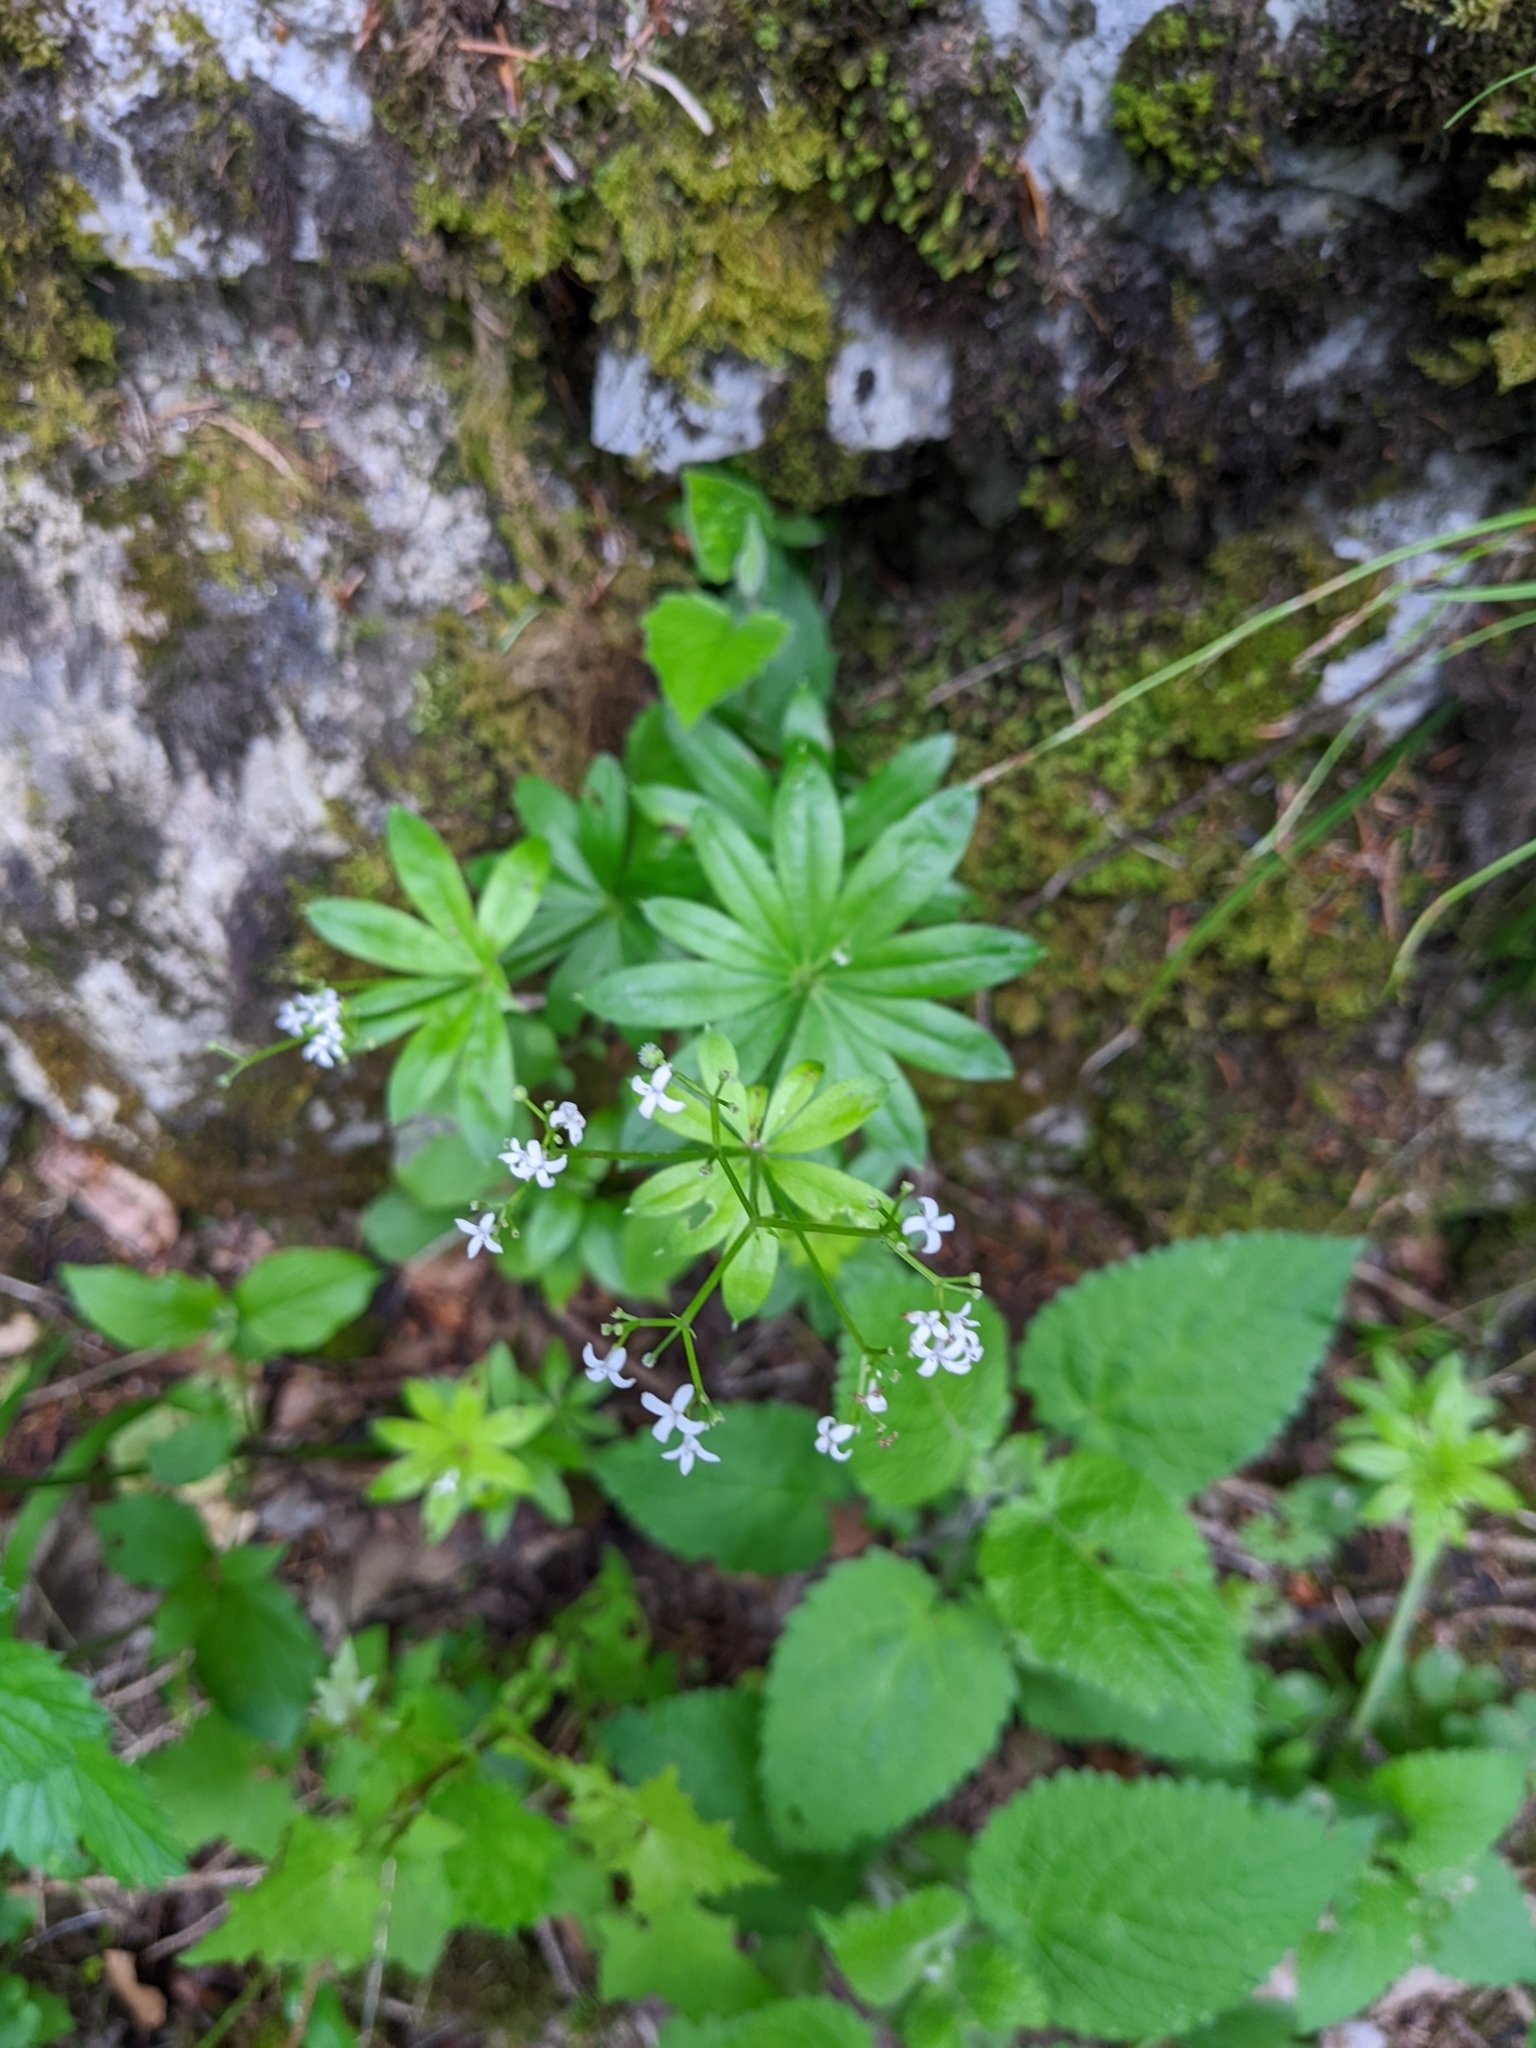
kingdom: Plantae
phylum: Tracheophyta
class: Magnoliopsida
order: Gentianales
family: Rubiaceae
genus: Galium
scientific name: Galium odoratum
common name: Sweet woodruff
